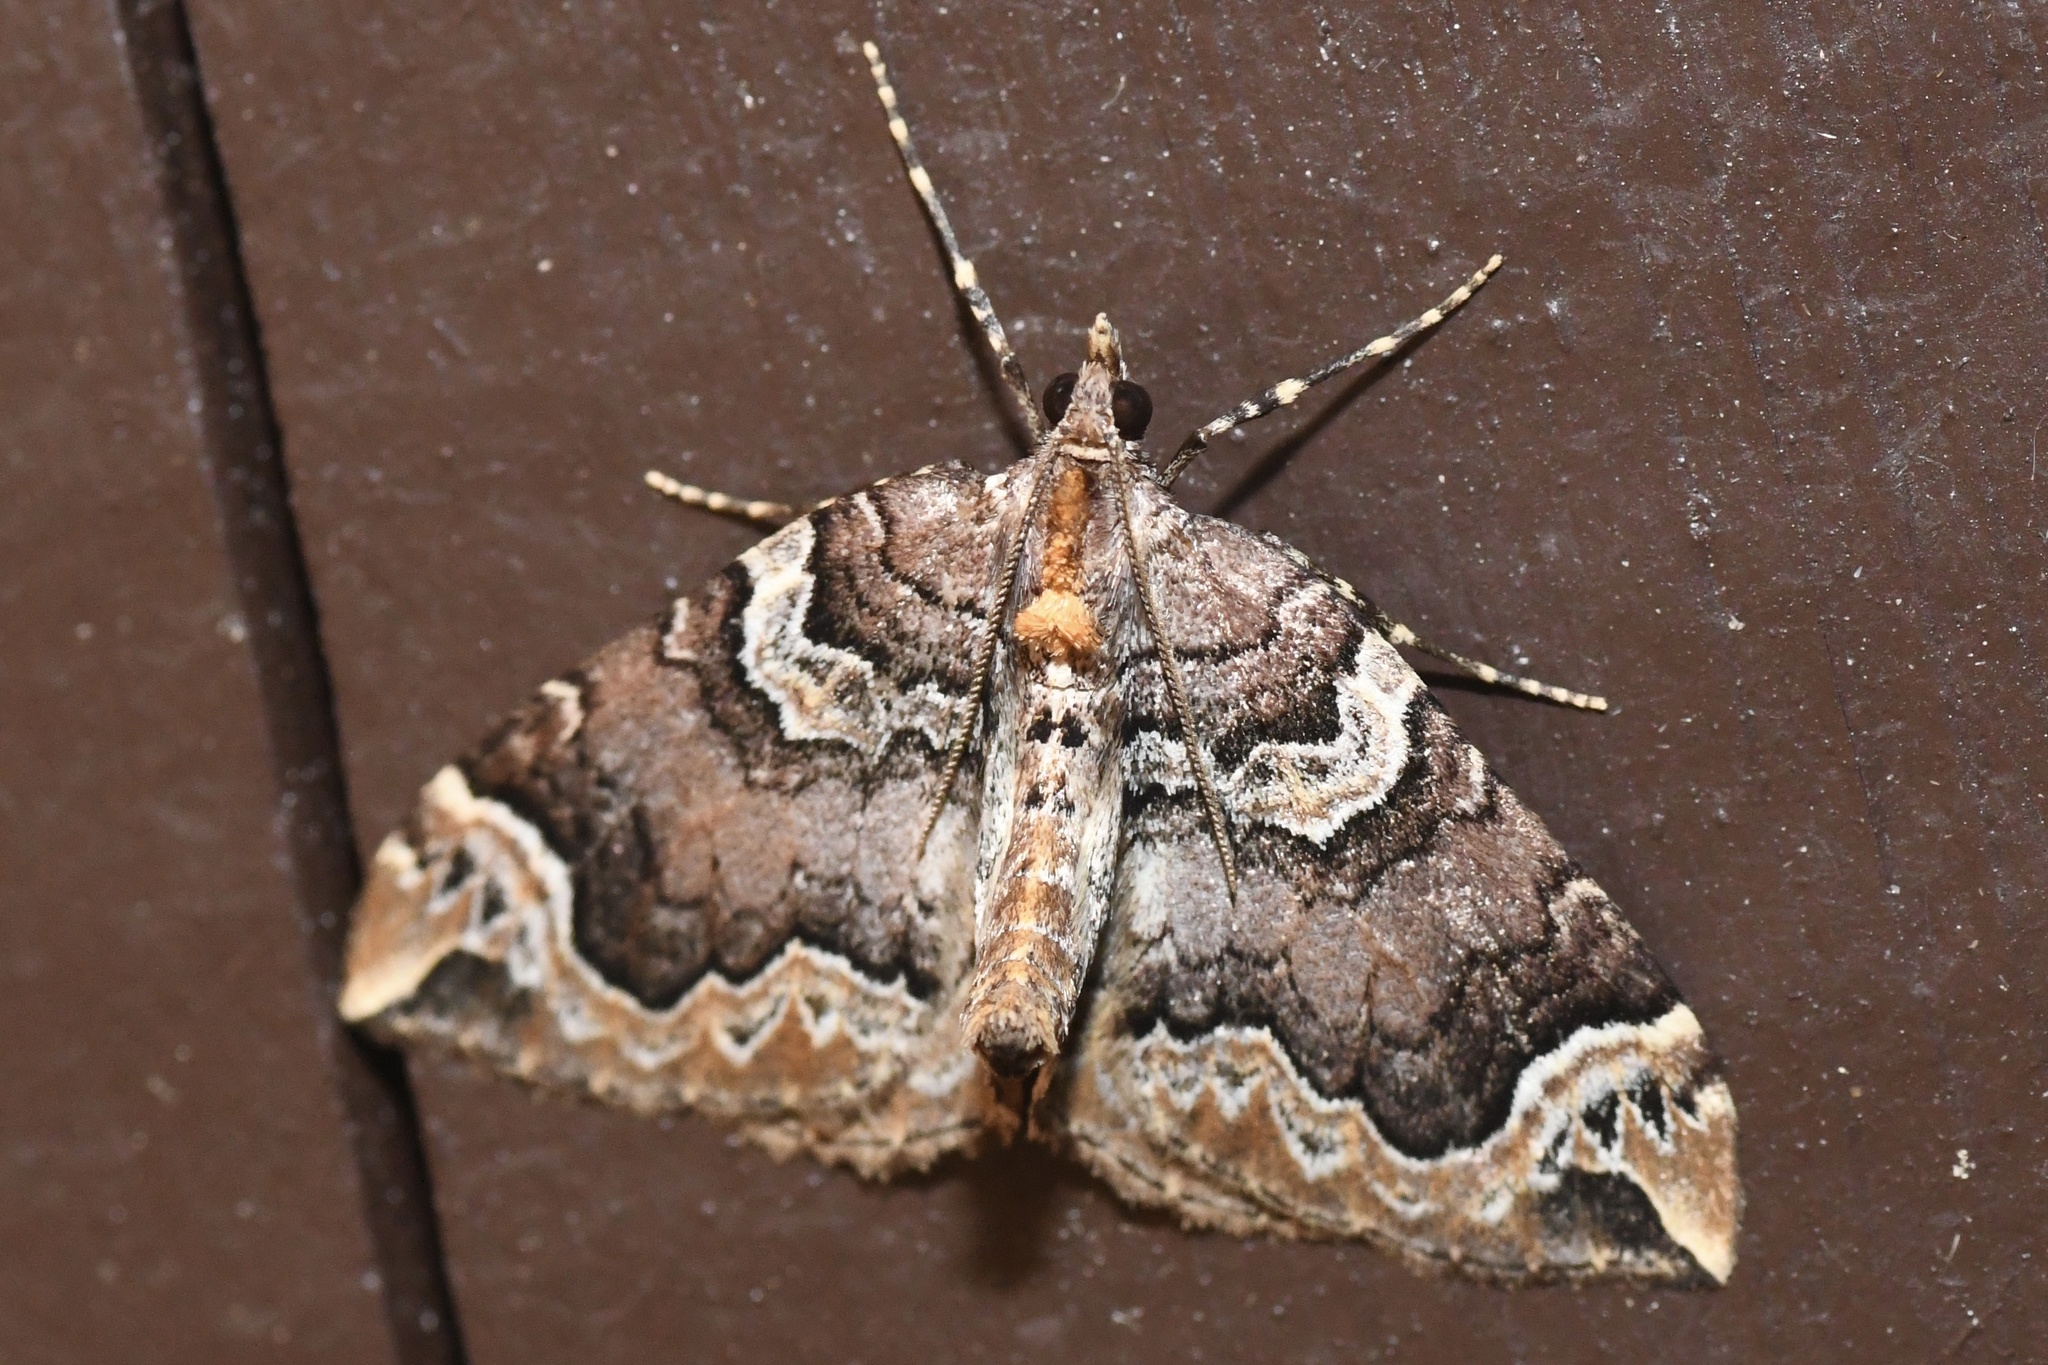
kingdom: Animalia
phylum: Arthropoda
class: Insecta
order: Lepidoptera
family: Geometridae
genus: Eulithis
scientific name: Eulithis serrataria
